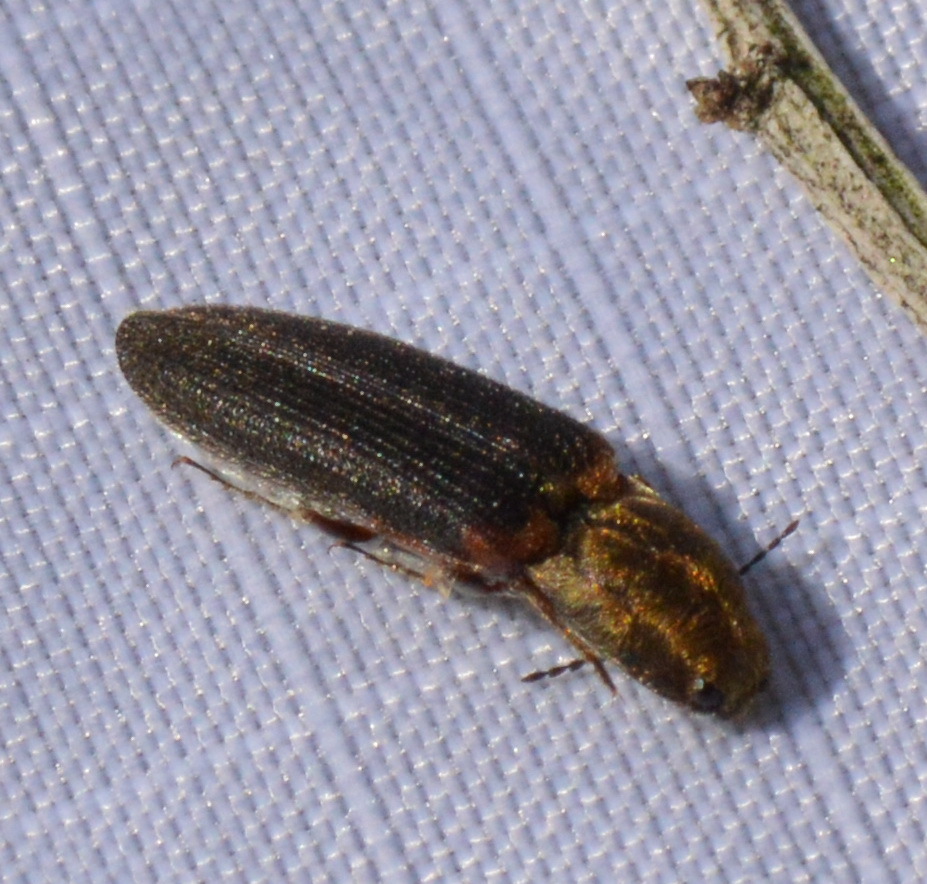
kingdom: Animalia
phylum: Arthropoda
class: Insecta
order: Coleoptera
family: Elateridae
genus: Limonius
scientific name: Limonius auripilis
